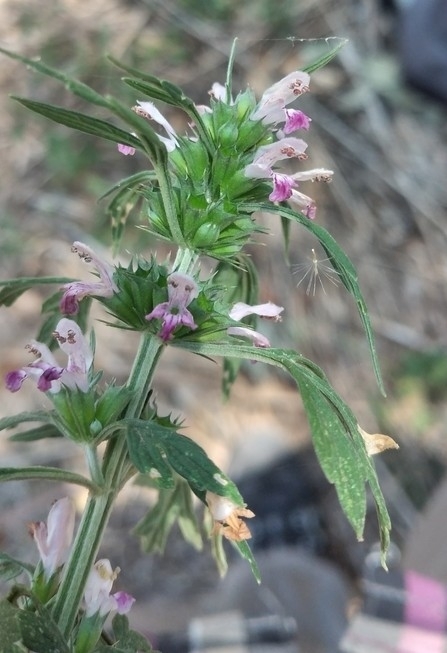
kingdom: Plantae
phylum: Tracheophyta
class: Magnoliopsida
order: Lamiales
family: Lamiaceae
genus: Leonurus
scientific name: Leonurus japonicus
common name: Honeyweed
